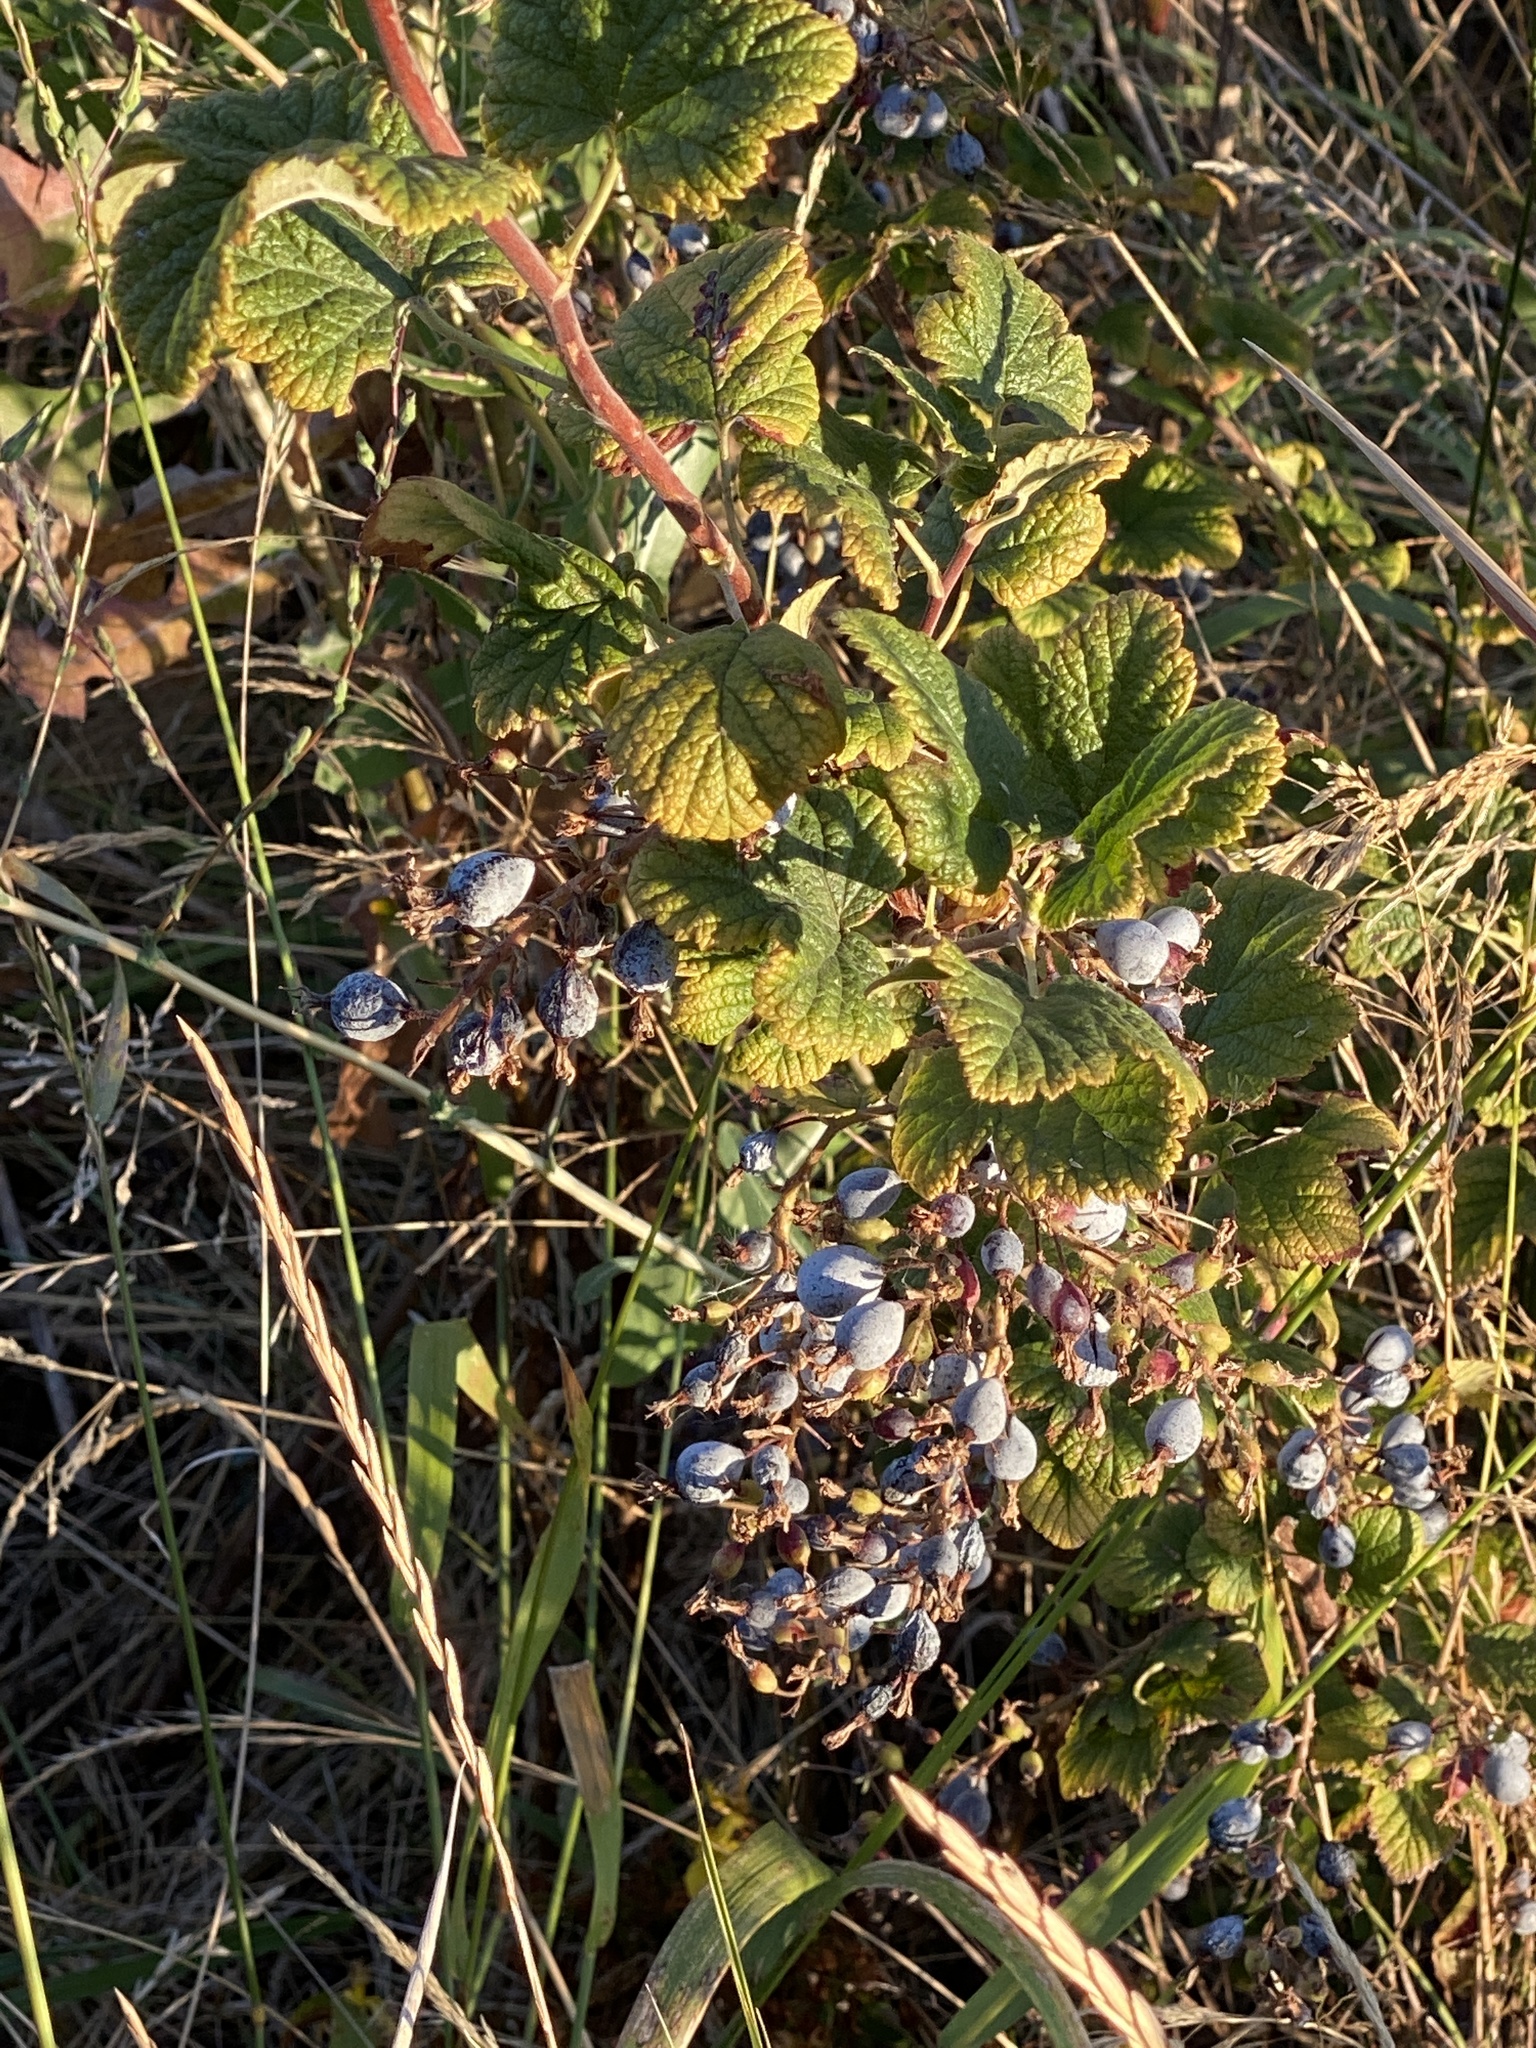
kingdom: Plantae
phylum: Tracheophyta
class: Magnoliopsida
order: Saxifragales
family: Grossulariaceae
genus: Ribes
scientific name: Ribes sanguineum
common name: Flowering currant
